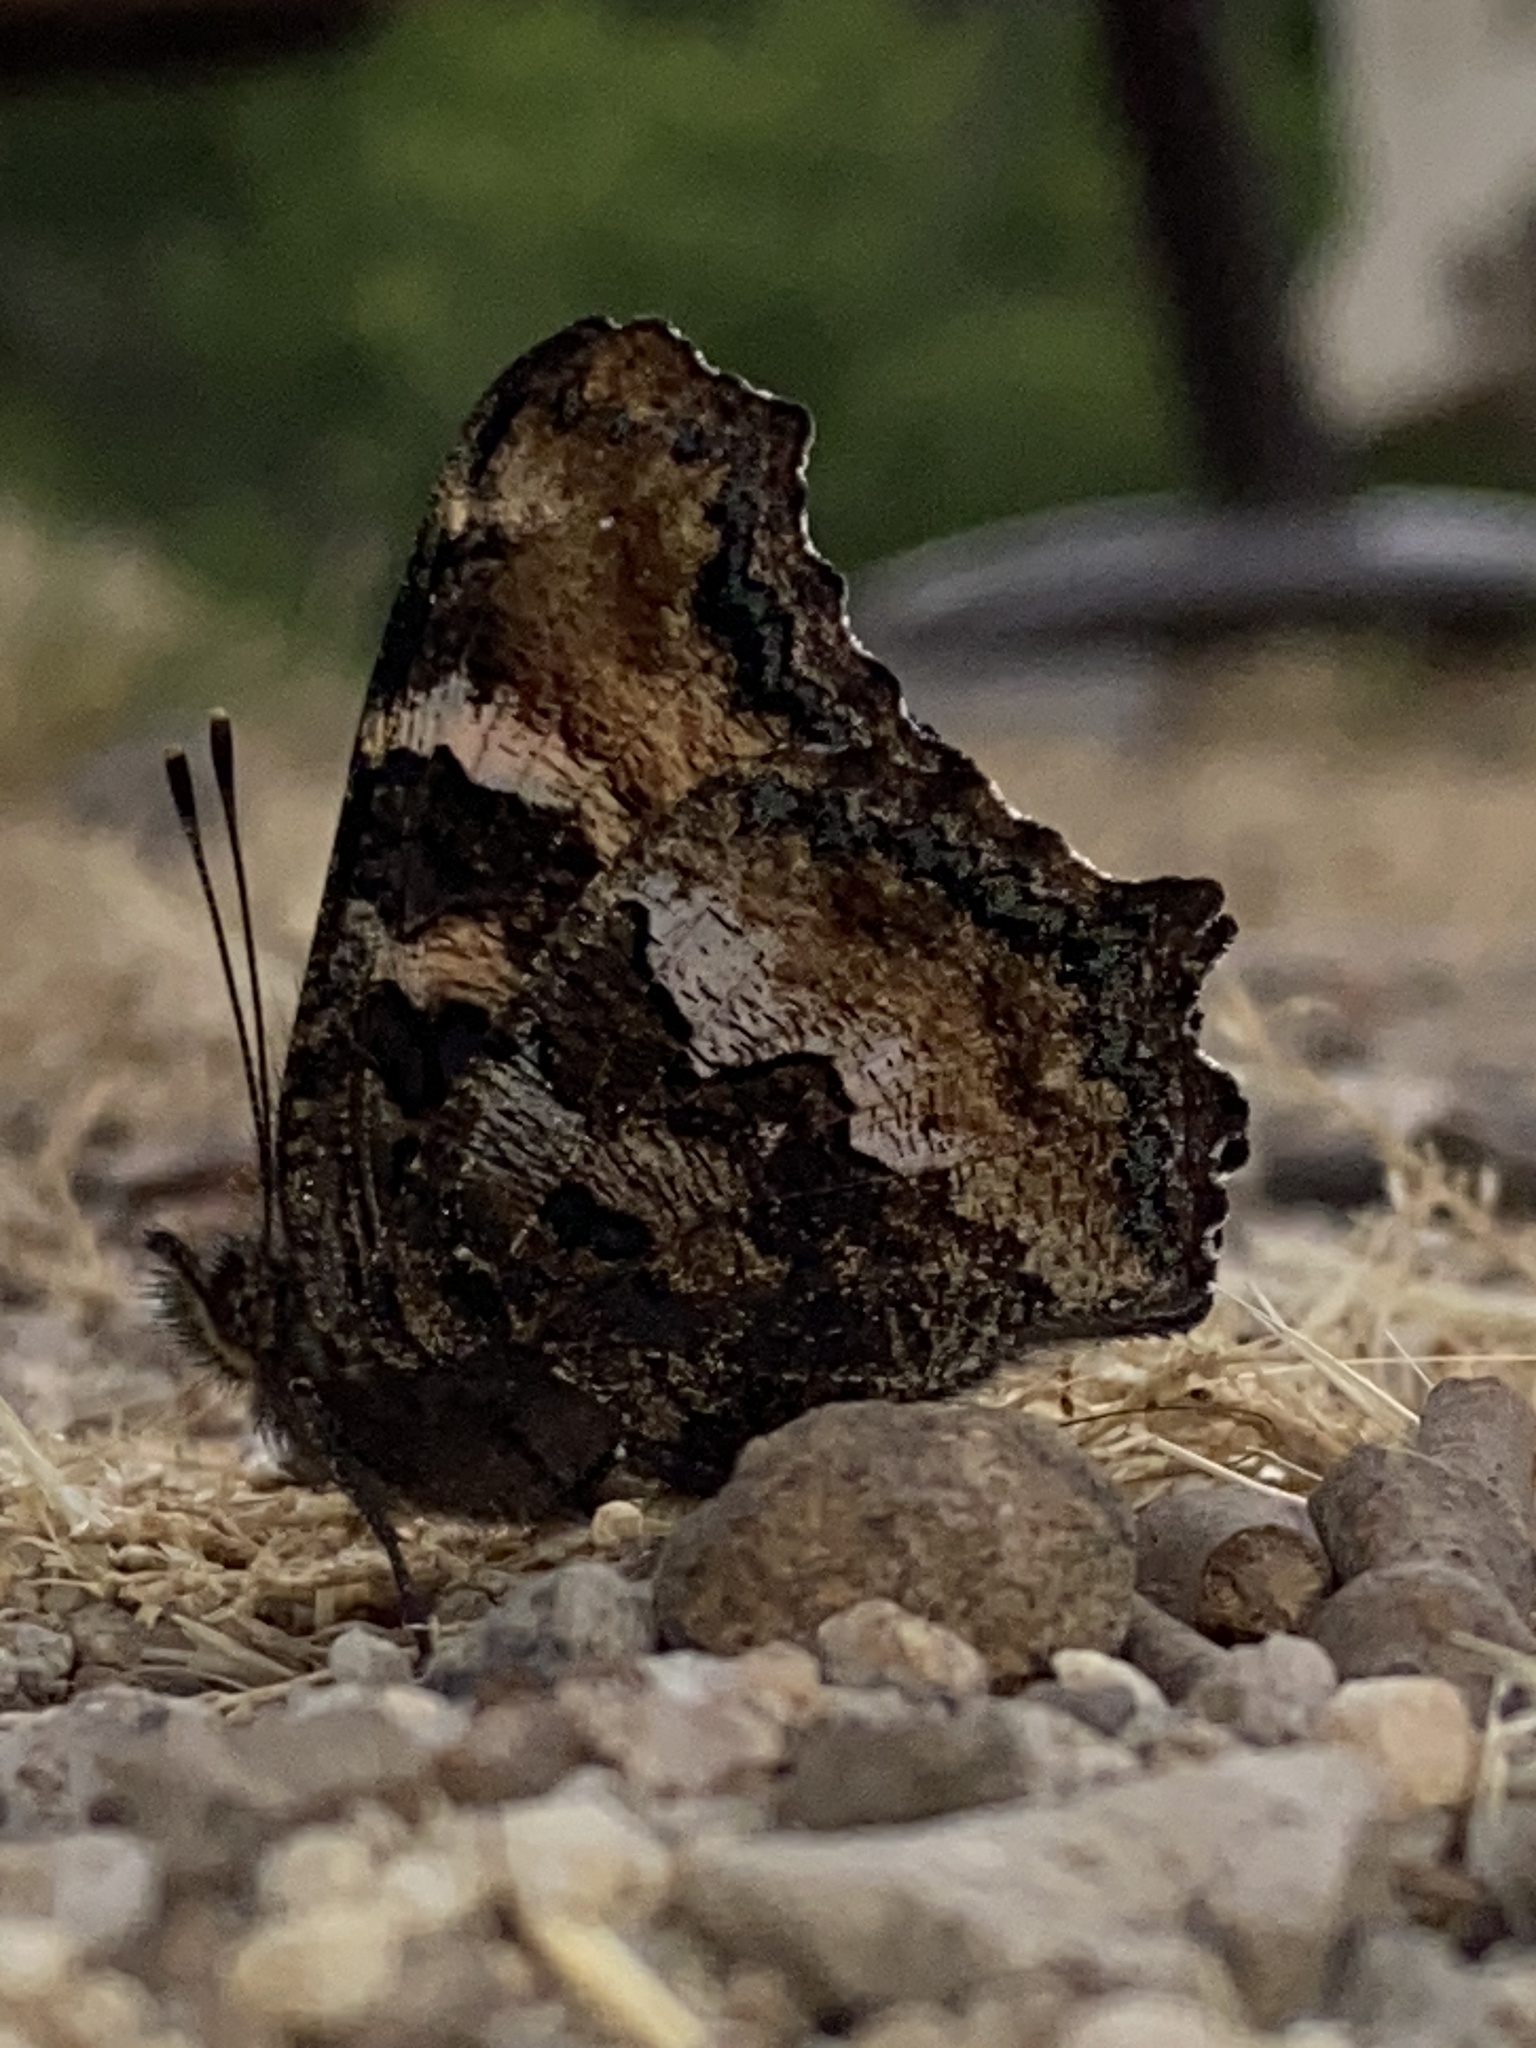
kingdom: Animalia
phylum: Arthropoda
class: Insecta
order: Lepidoptera
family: Nymphalidae
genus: Nymphalis
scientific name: Nymphalis californica
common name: California tortoiseshell
